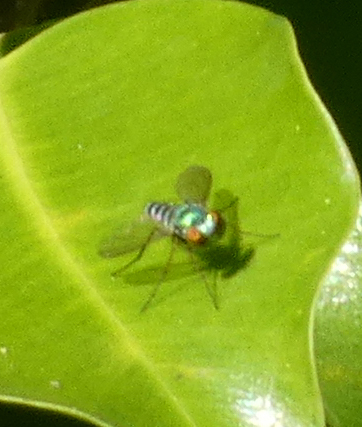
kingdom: Animalia
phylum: Arthropoda
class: Insecta
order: Diptera
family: Dolichopodidae
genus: Condylostylus
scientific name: Condylostylus pruinosus
